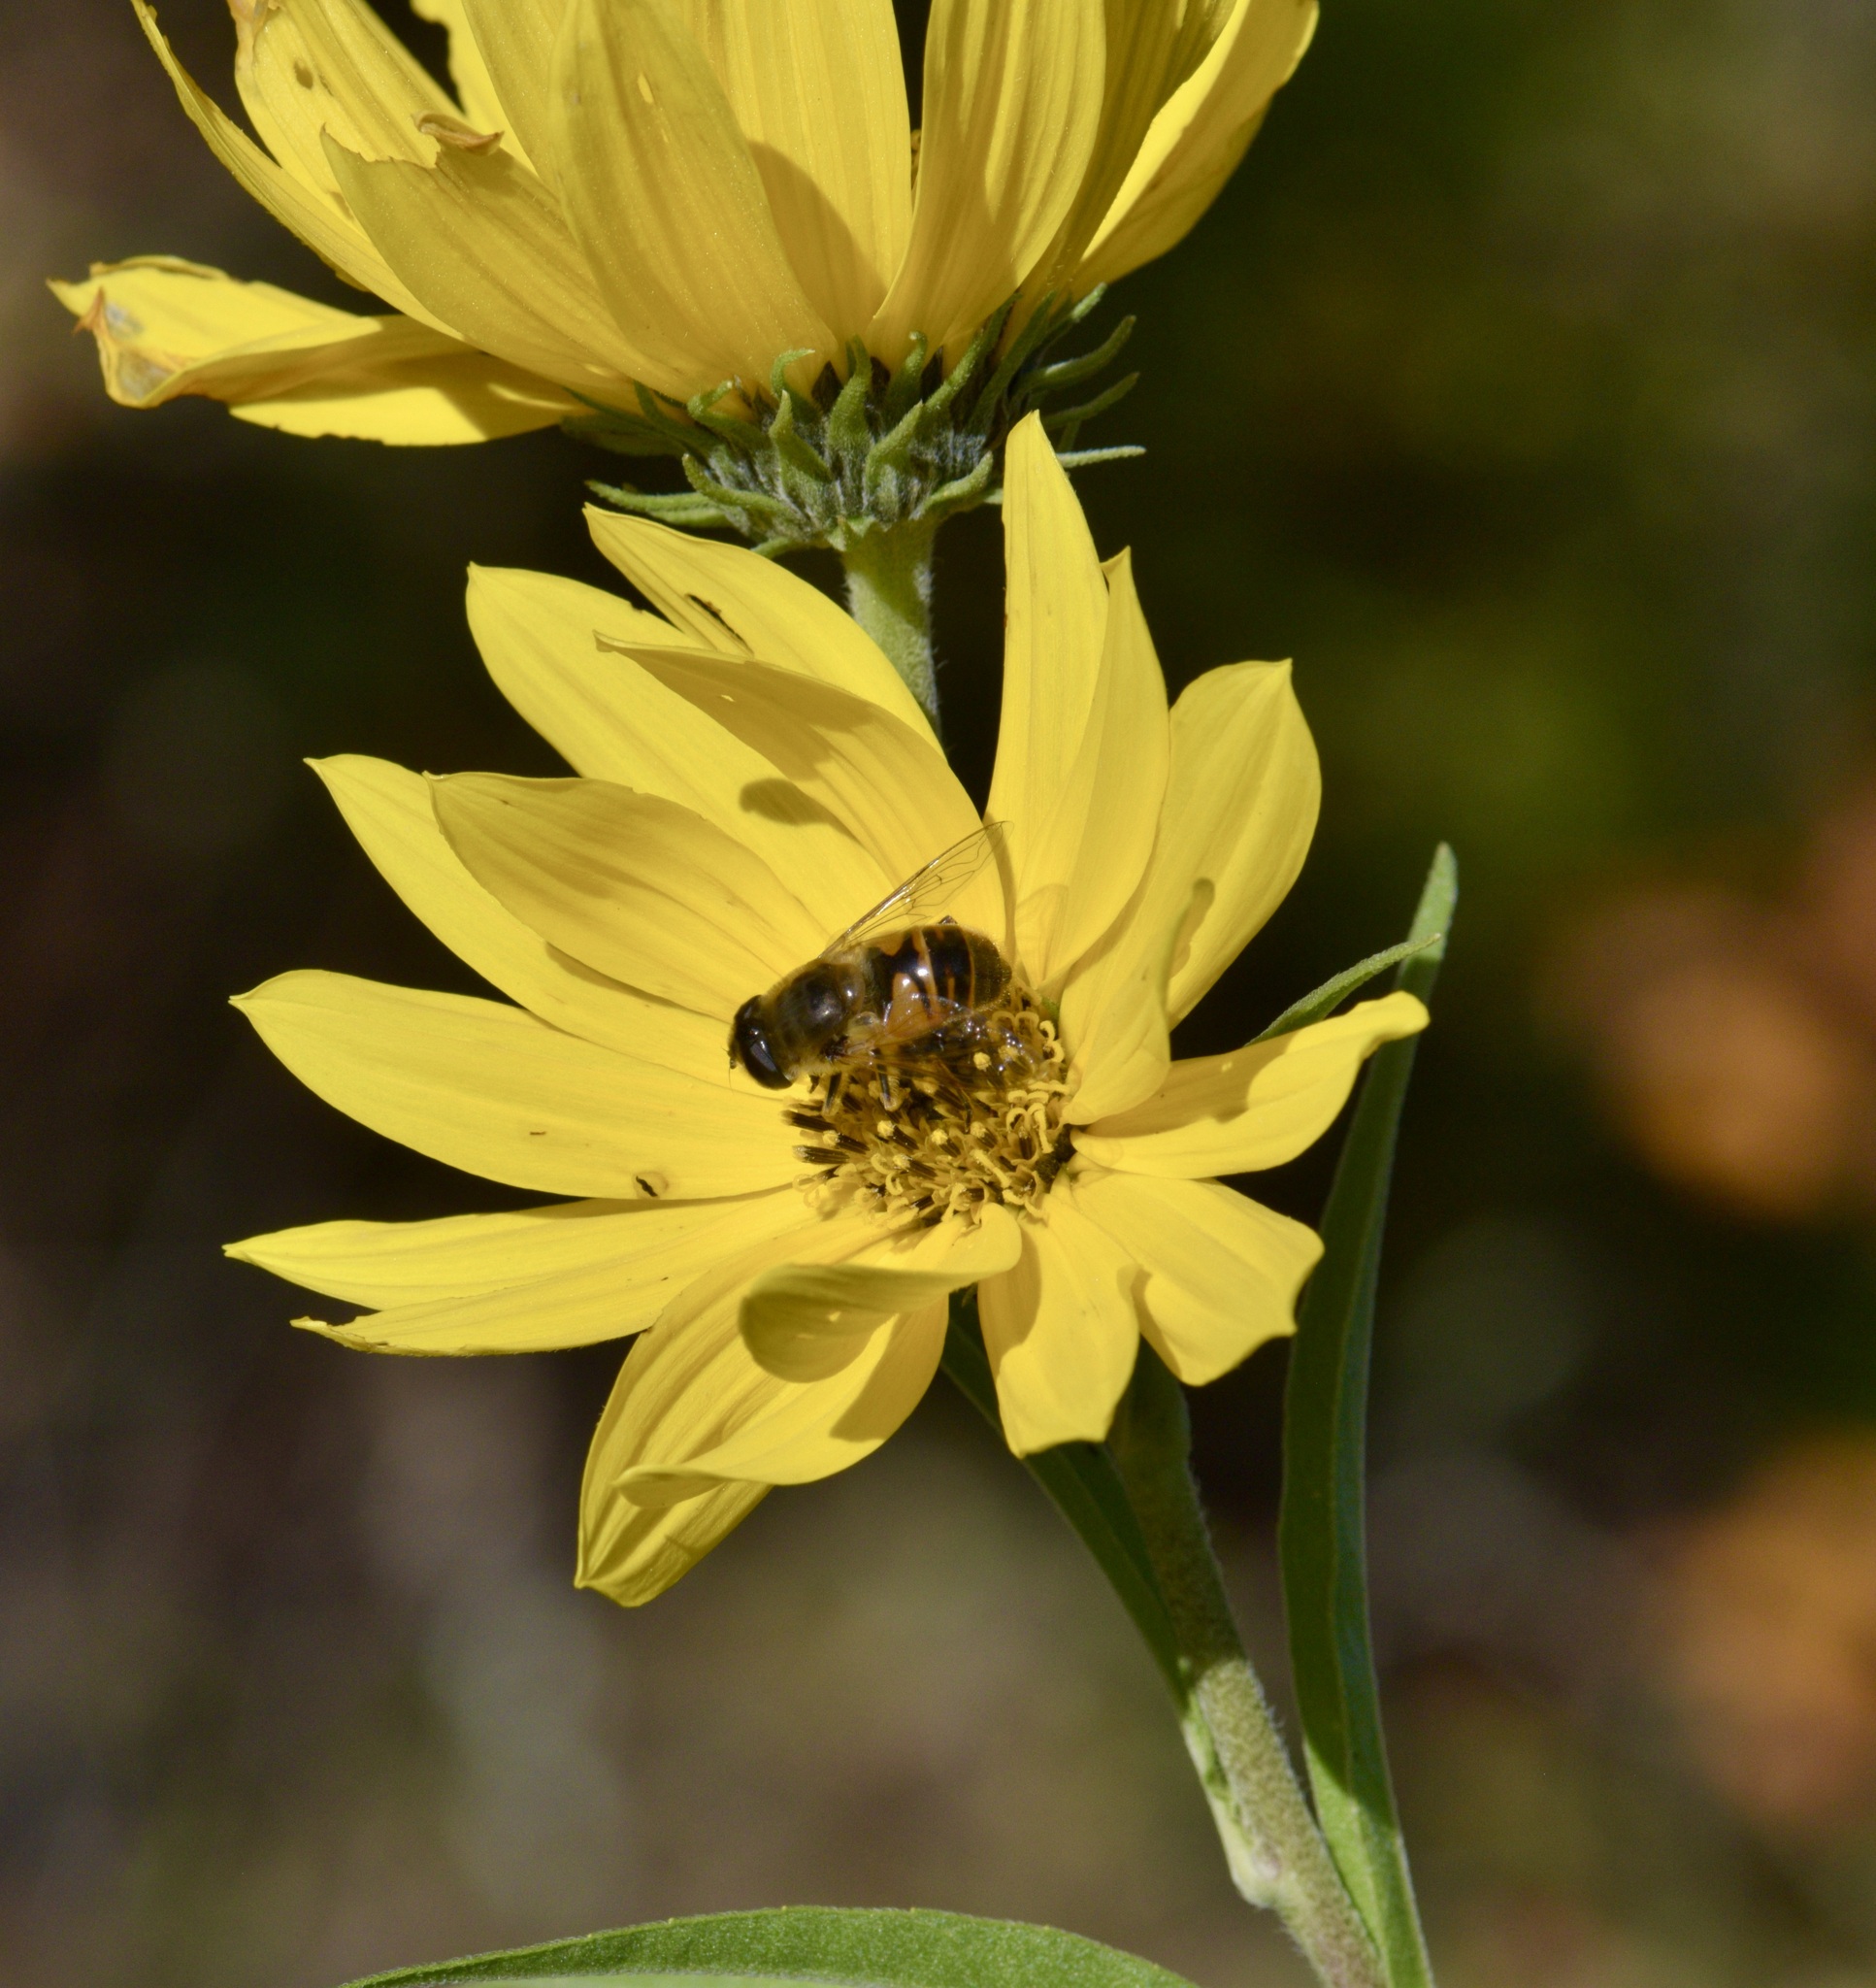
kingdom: Animalia
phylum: Arthropoda
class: Insecta
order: Diptera
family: Syrphidae
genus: Eristalis
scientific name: Eristalis tenax
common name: Drone fly
